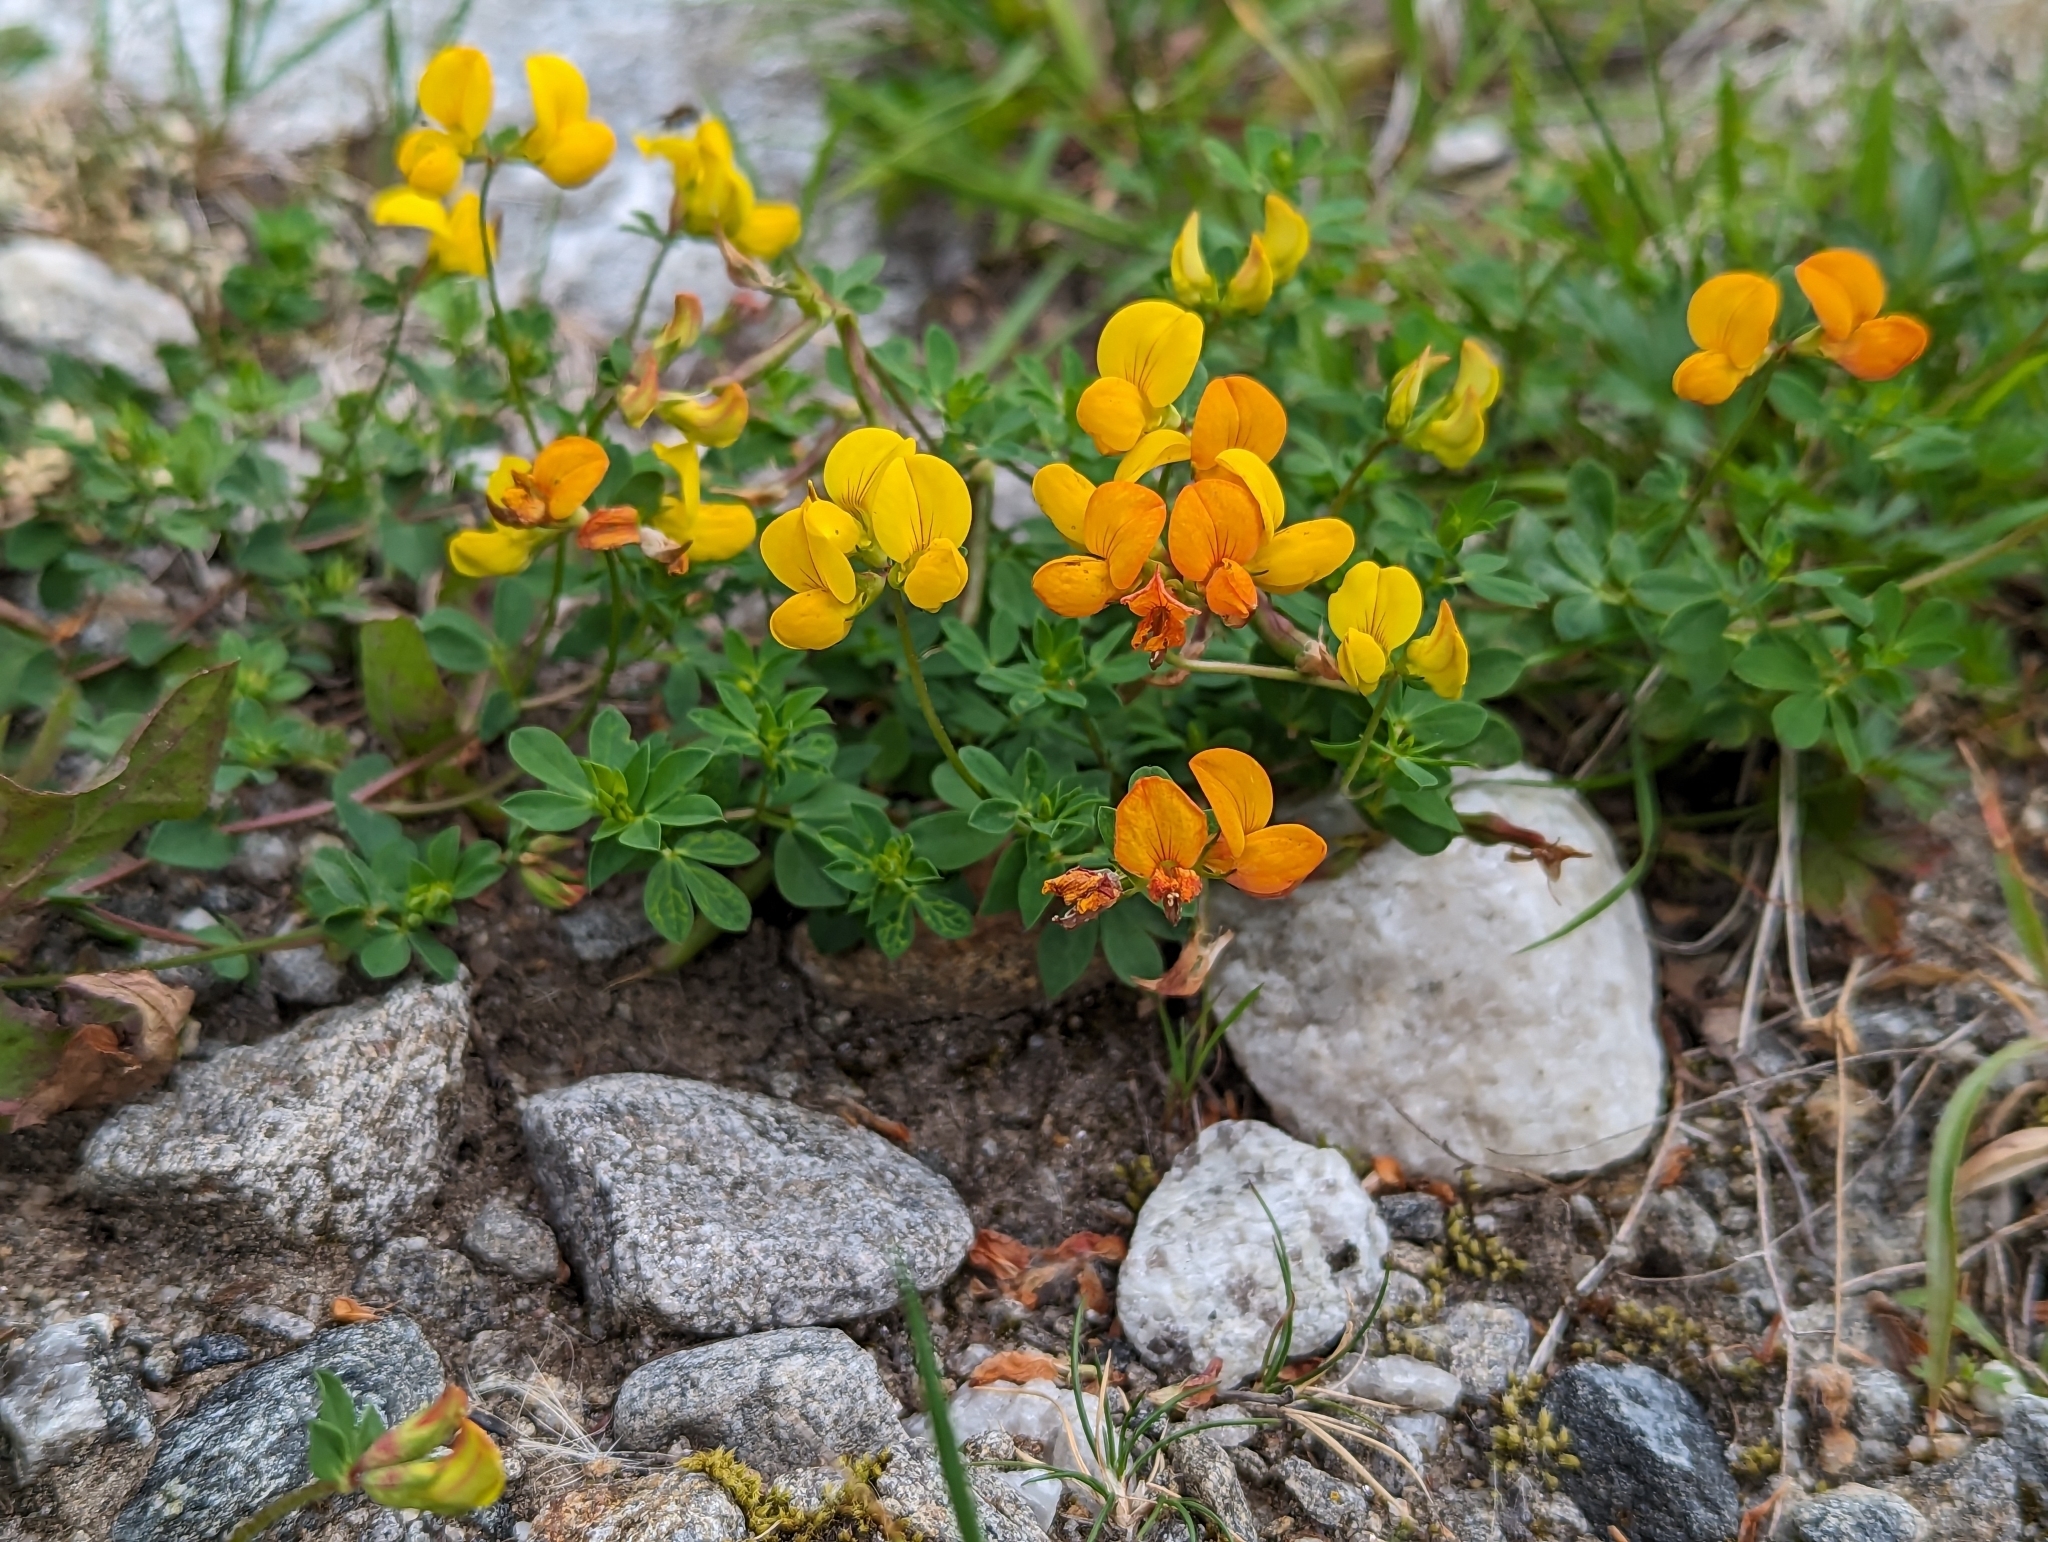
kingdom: Plantae
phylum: Tracheophyta
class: Magnoliopsida
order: Fabales
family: Fabaceae
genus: Lotus
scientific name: Lotus corniculatus
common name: Common bird's-foot-trefoil
